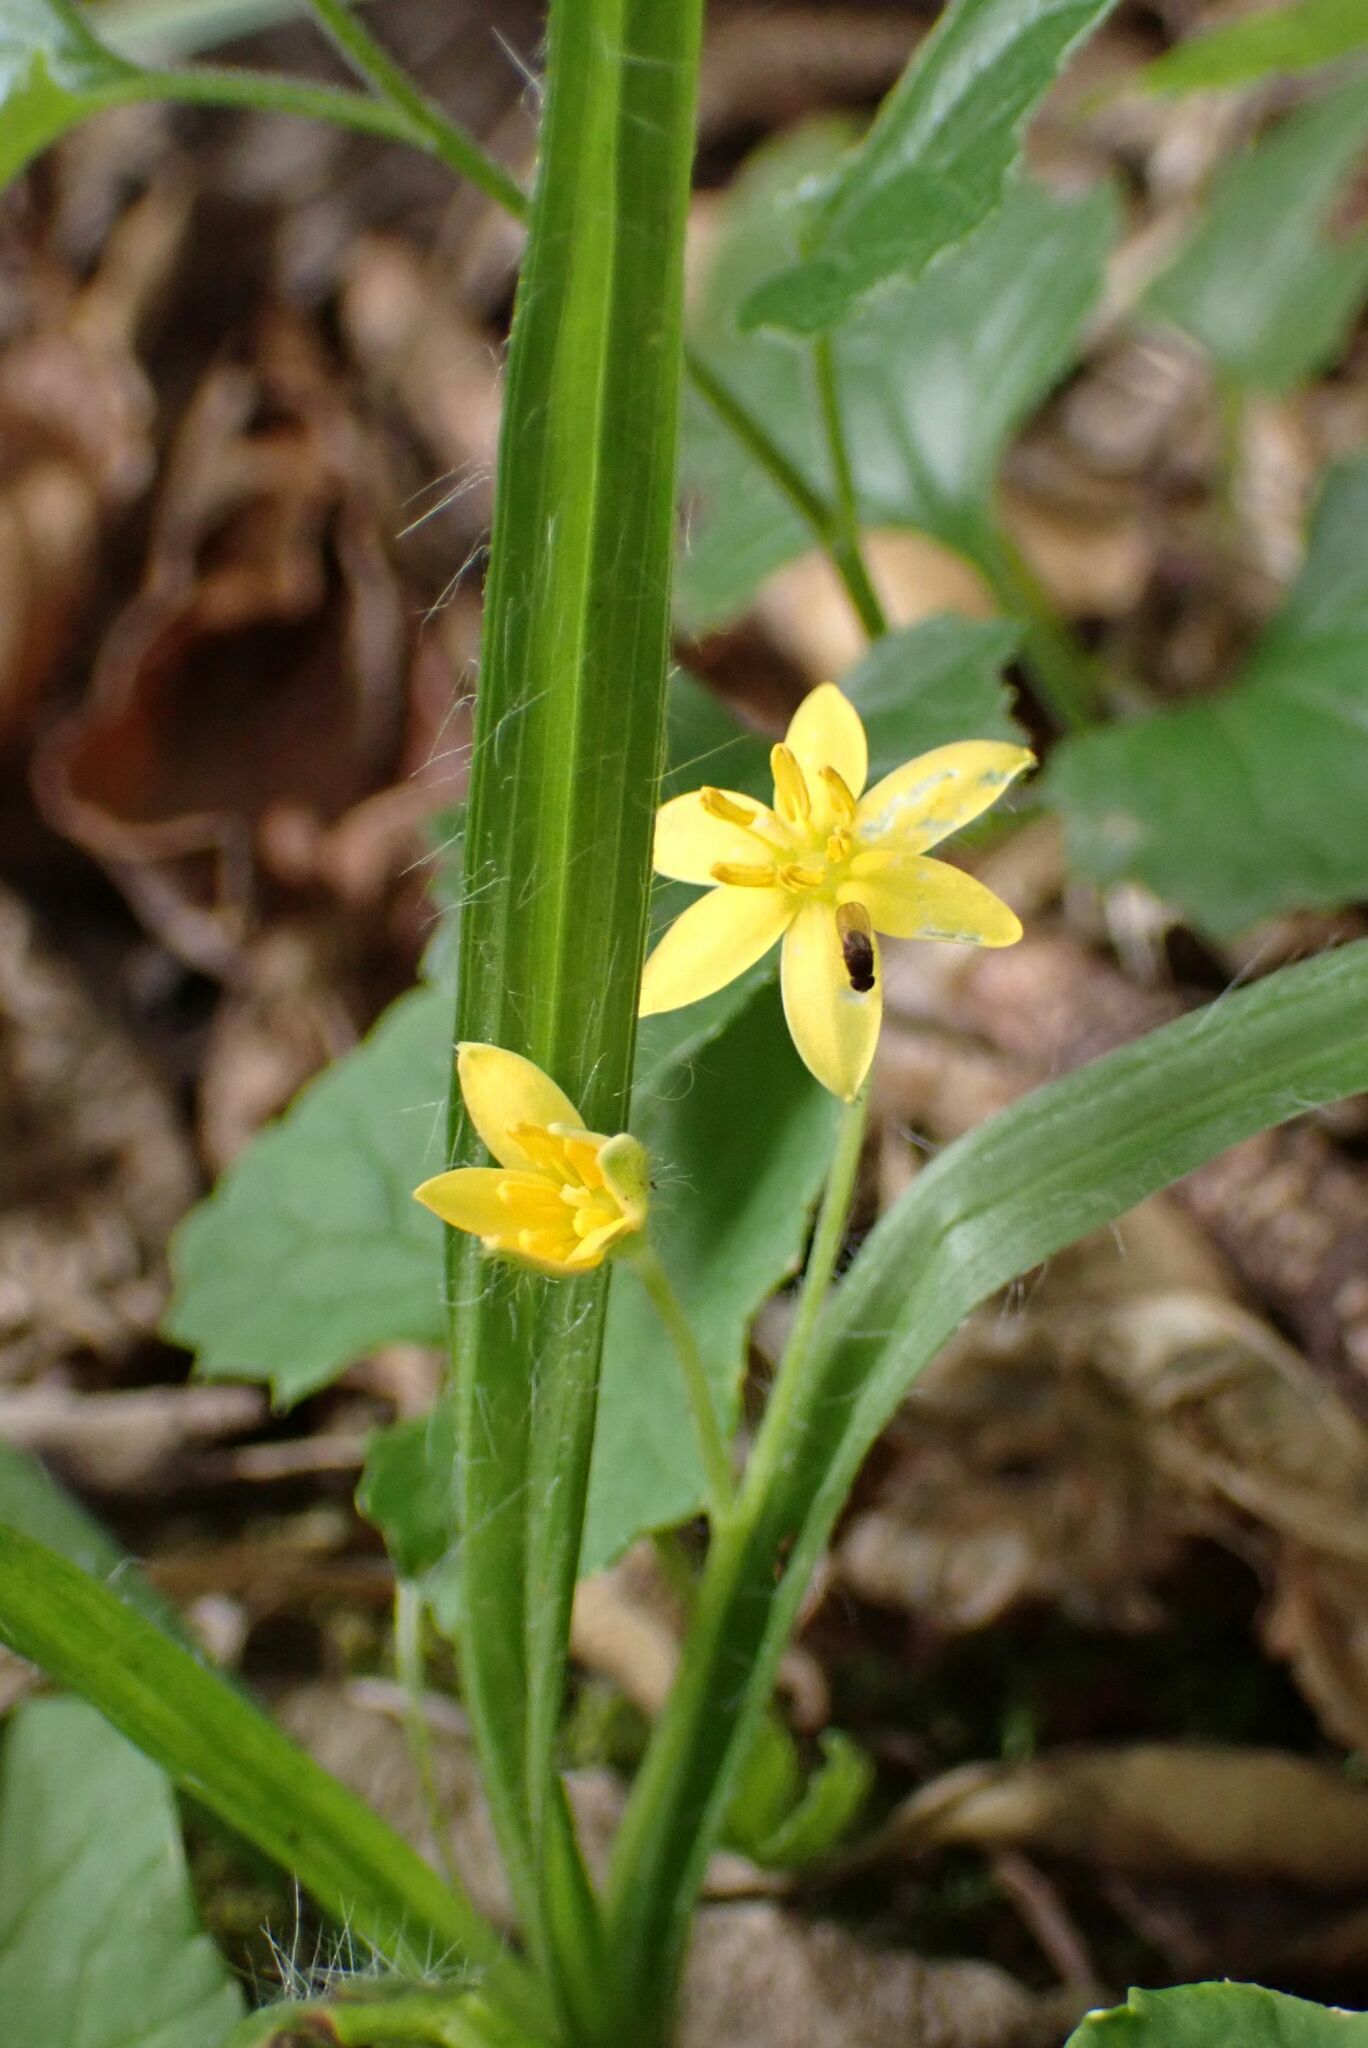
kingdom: Plantae
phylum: Tracheophyta
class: Liliopsida
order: Asparagales
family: Hypoxidaceae
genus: Hypoxis
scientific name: Hypoxis angustifolia
